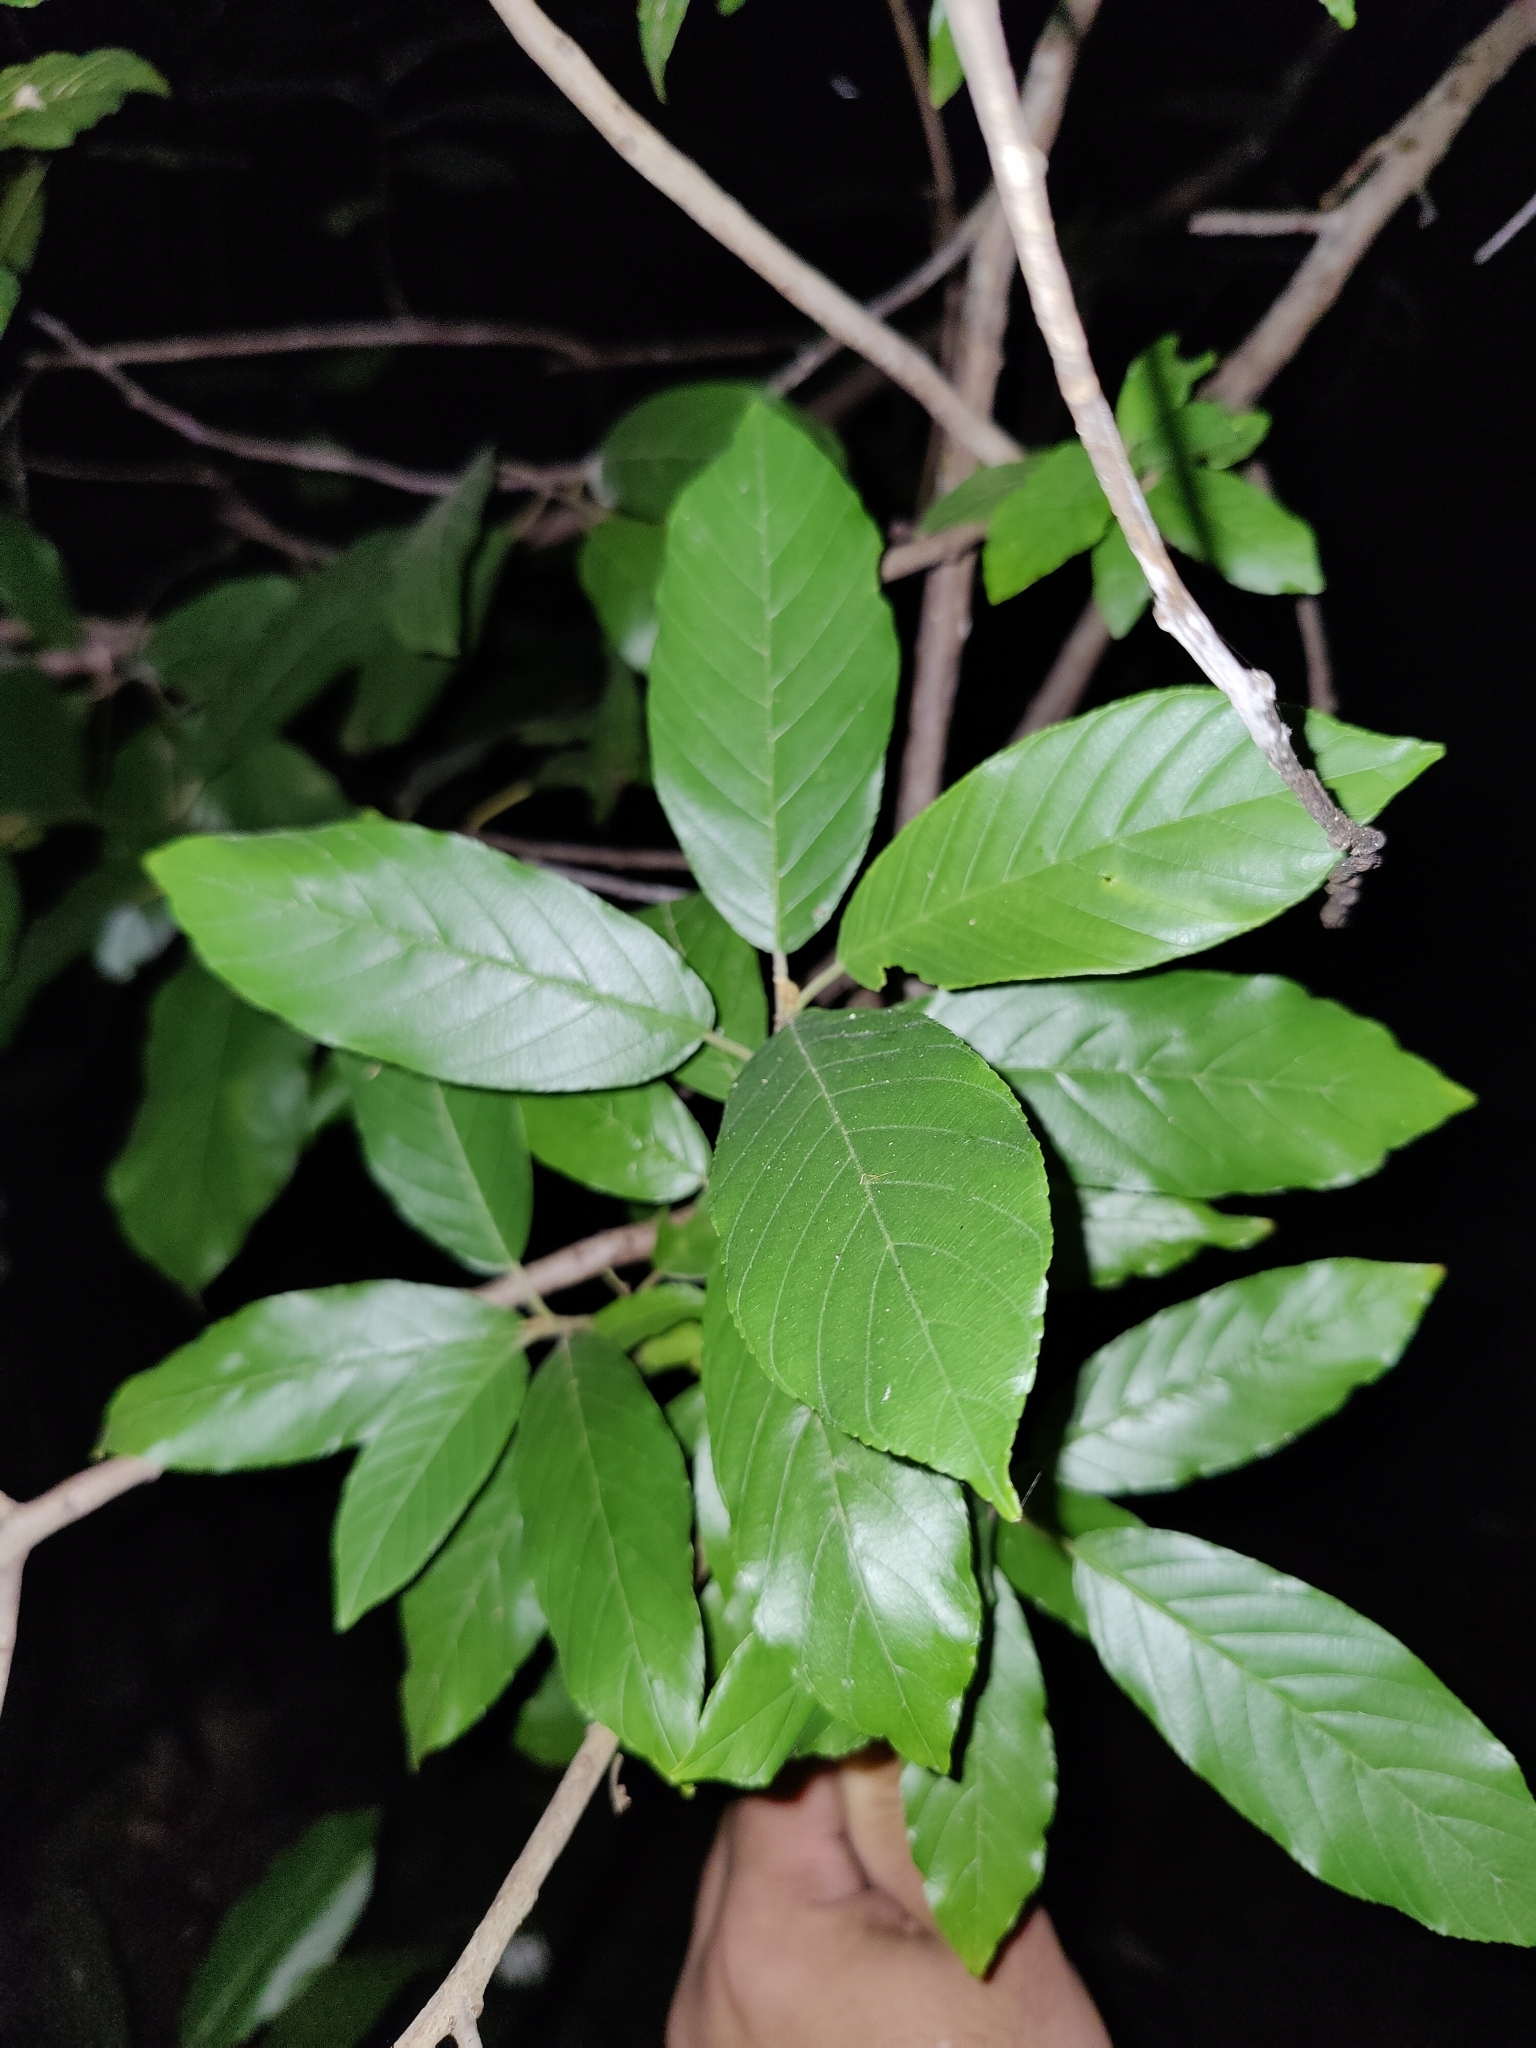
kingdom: Plantae
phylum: Tracheophyta
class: Magnoliopsida
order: Rosales
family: Rhamnaceae
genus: Frangula
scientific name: Frangula caroliniana
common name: Carolina buckthorn
